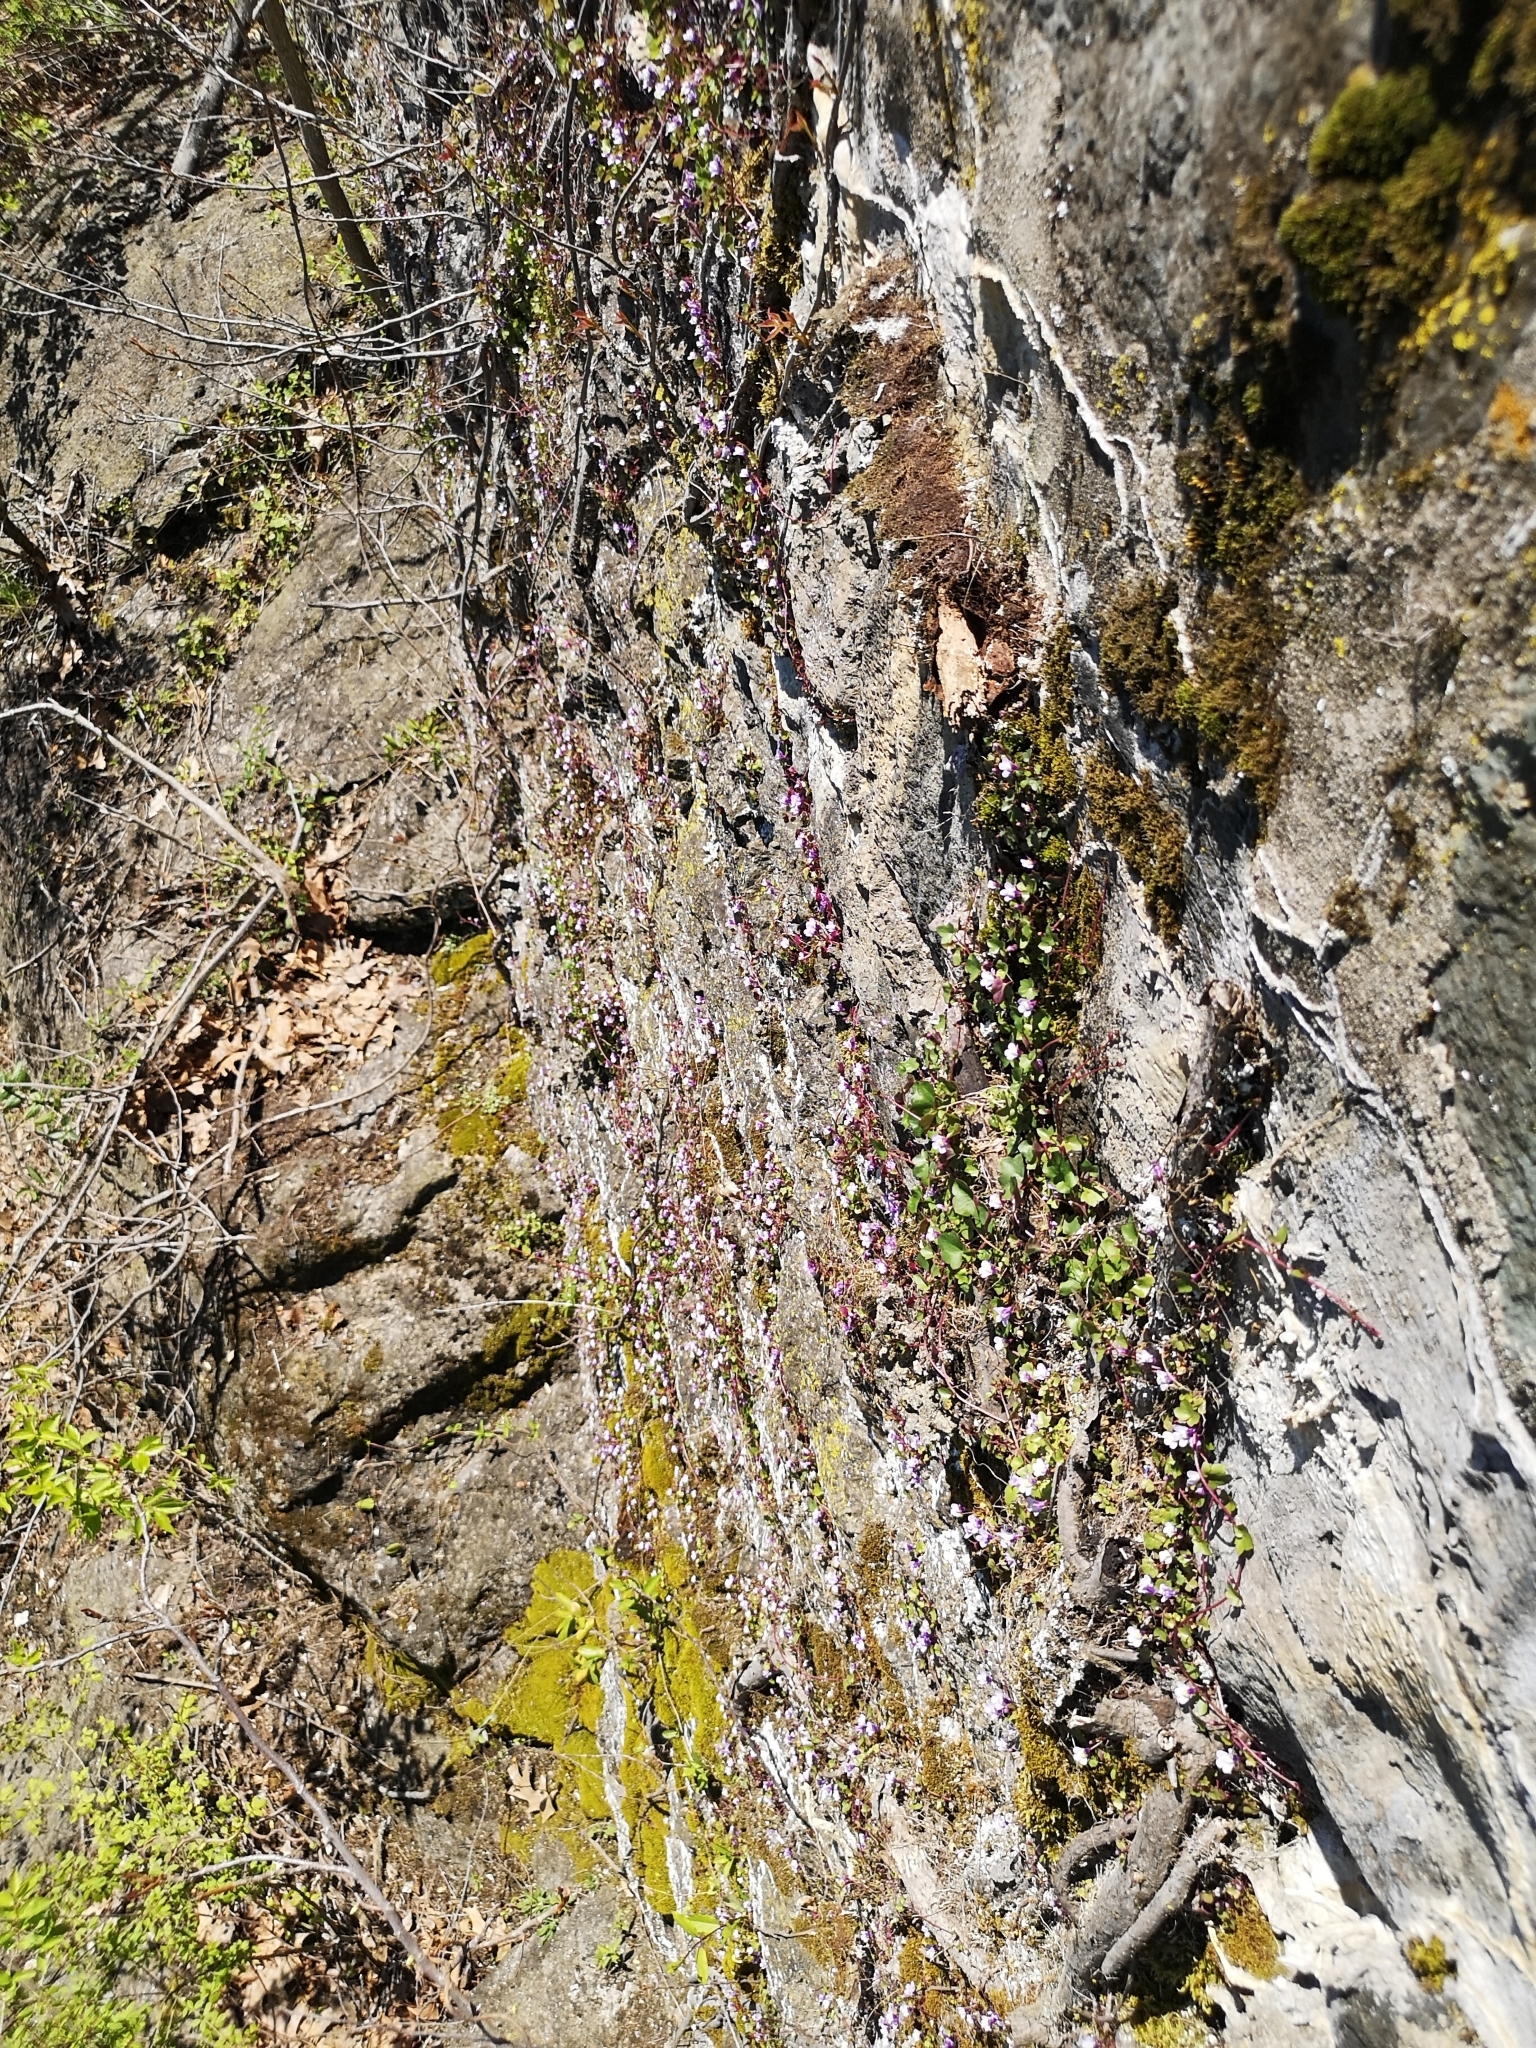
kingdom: Plantae
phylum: Tracheophyta
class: Magnoliopsida
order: Lamiales
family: Plantaginaceae
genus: Cymbalaria
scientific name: Cymbalaria muralis
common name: Ivy-leaved toadflax
